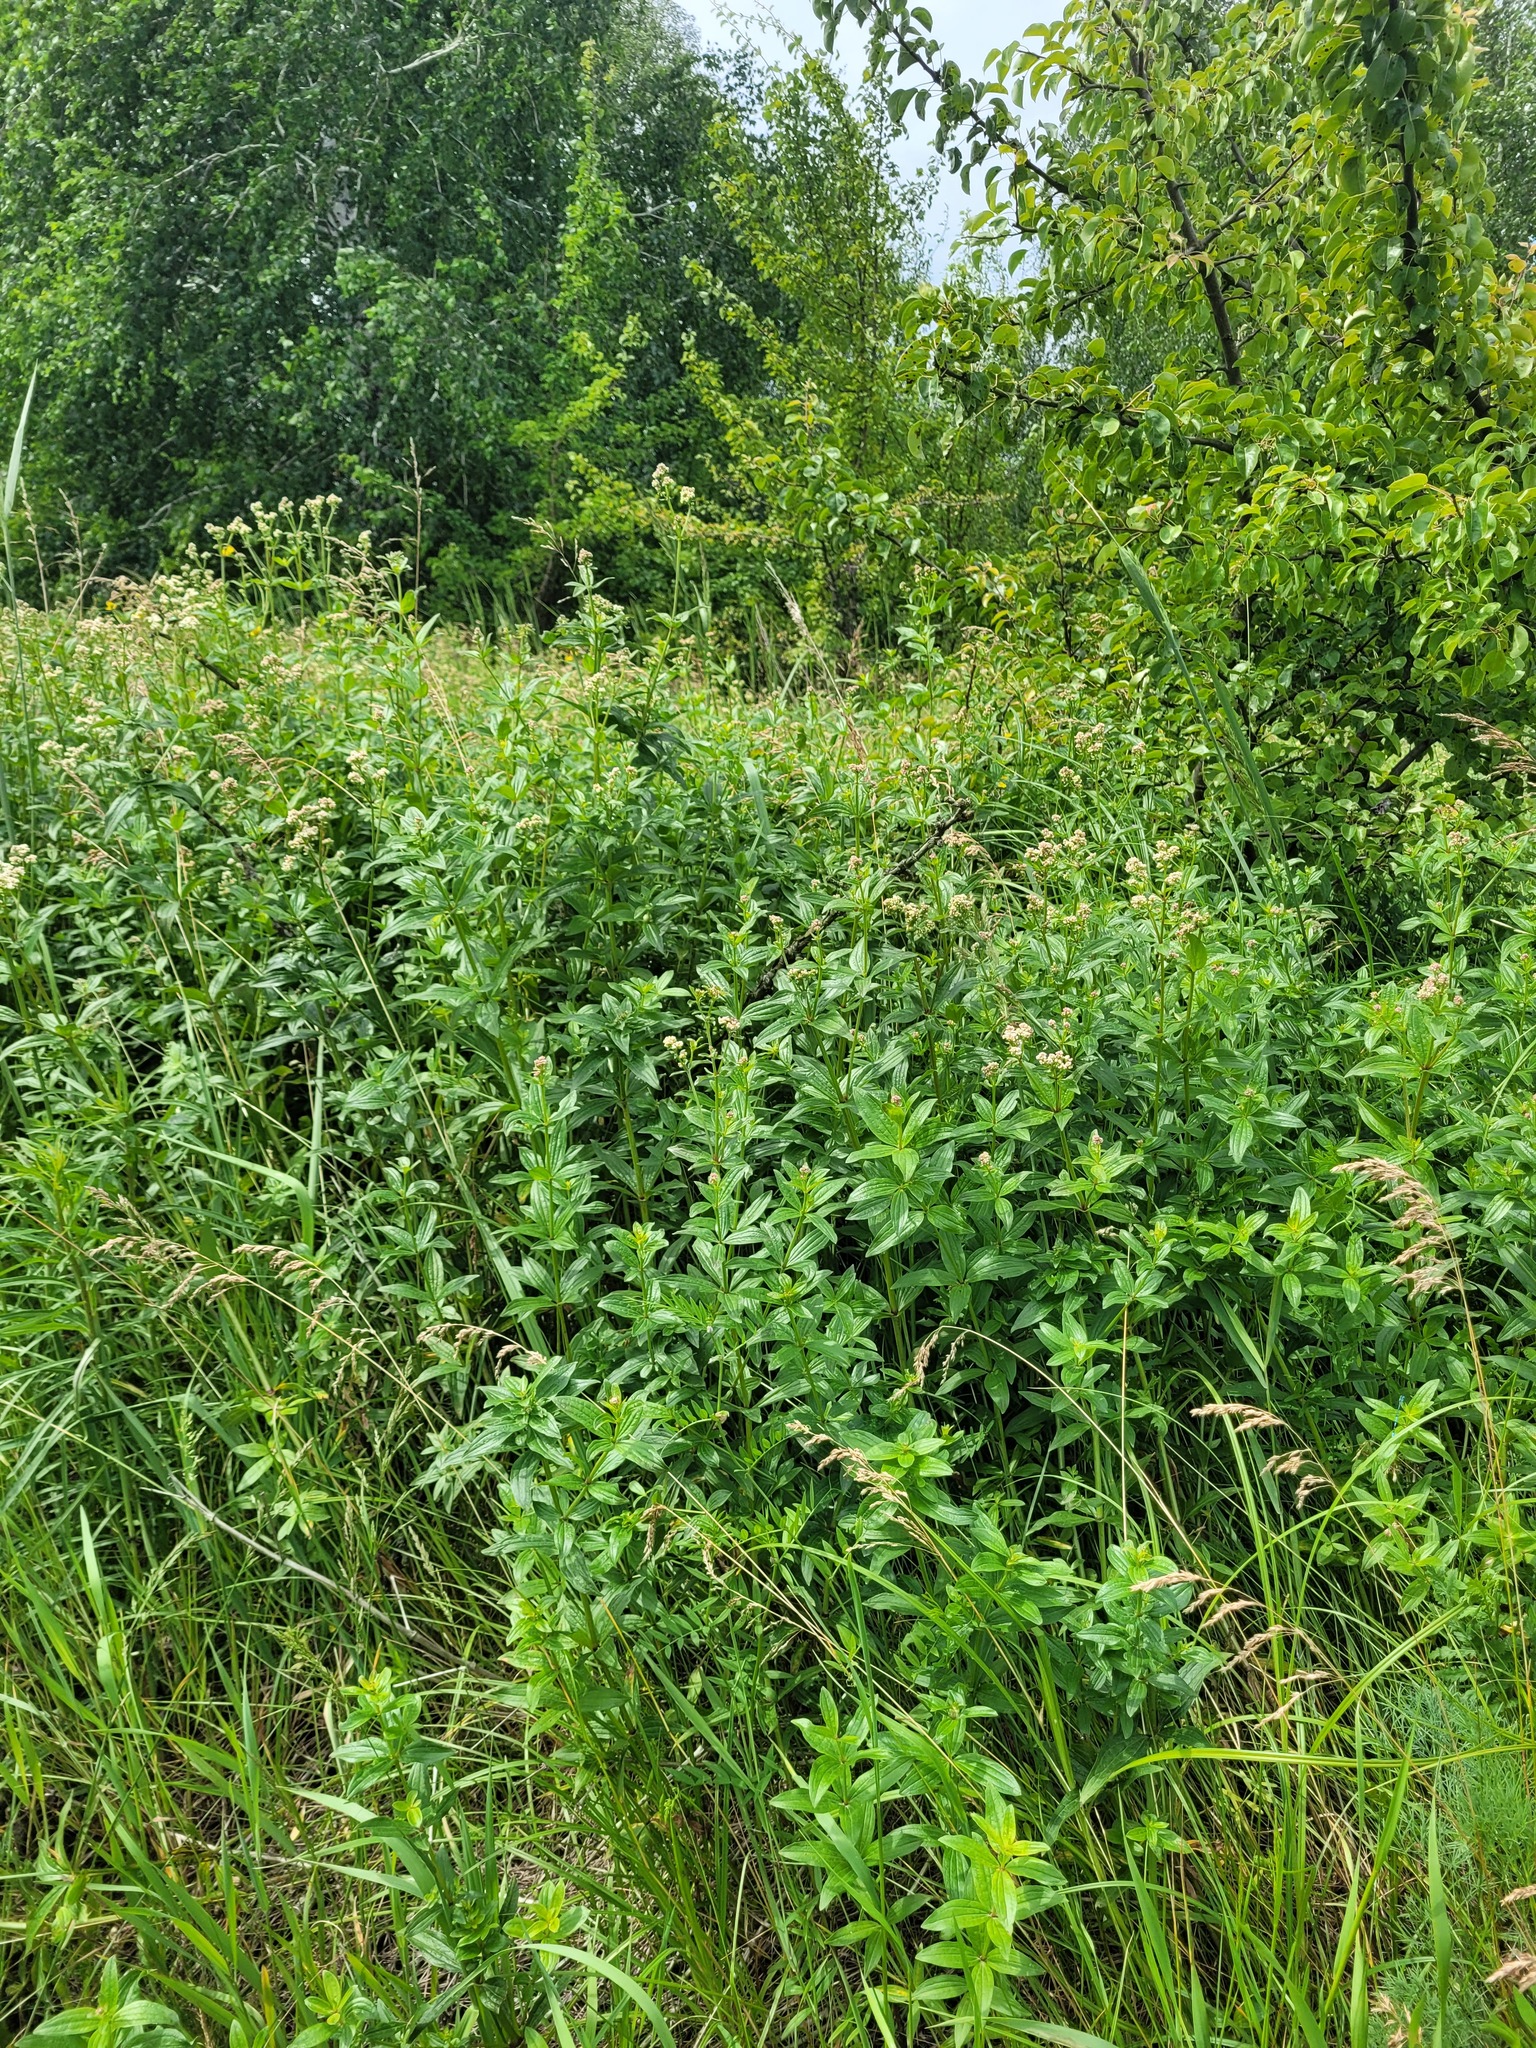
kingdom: Plantae
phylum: Tracheophyta
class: Magnoliopsida
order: Gentianales
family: Rubiaceae
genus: Galium
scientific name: Galium rubioides
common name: European bedstraw
